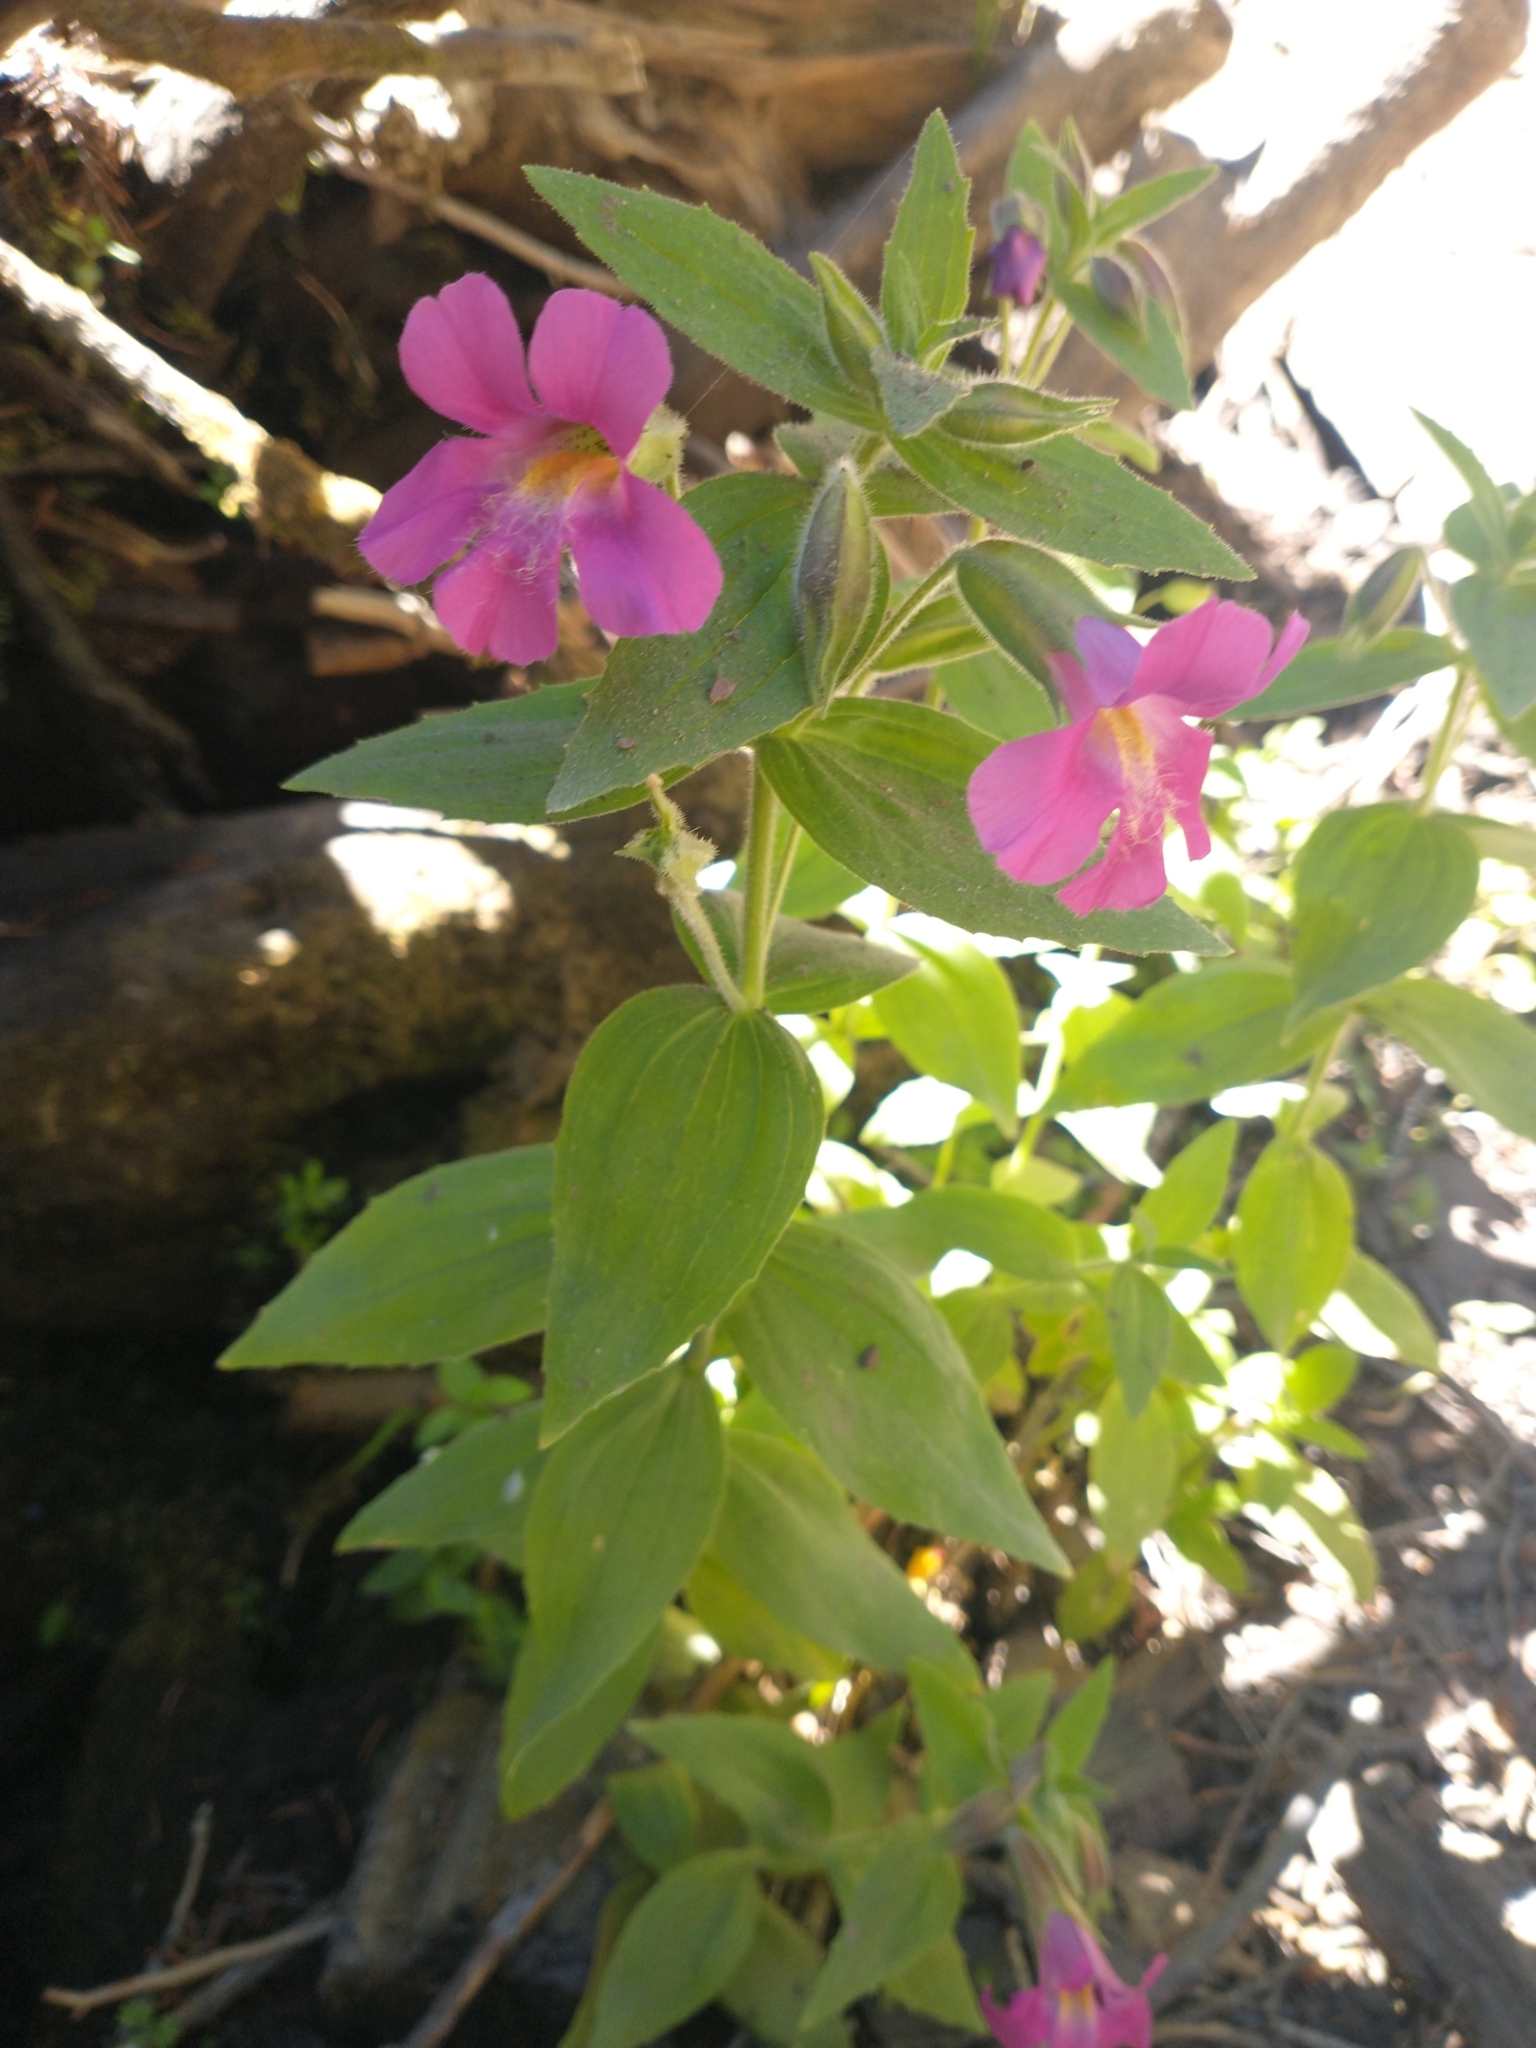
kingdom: Plantae
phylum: Tracheophyta
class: Magnoliopsida
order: Lamiales
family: Phrymaceae
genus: Erythranthe
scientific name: Erythranthe lewisii
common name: Lewis's monkey-flower
